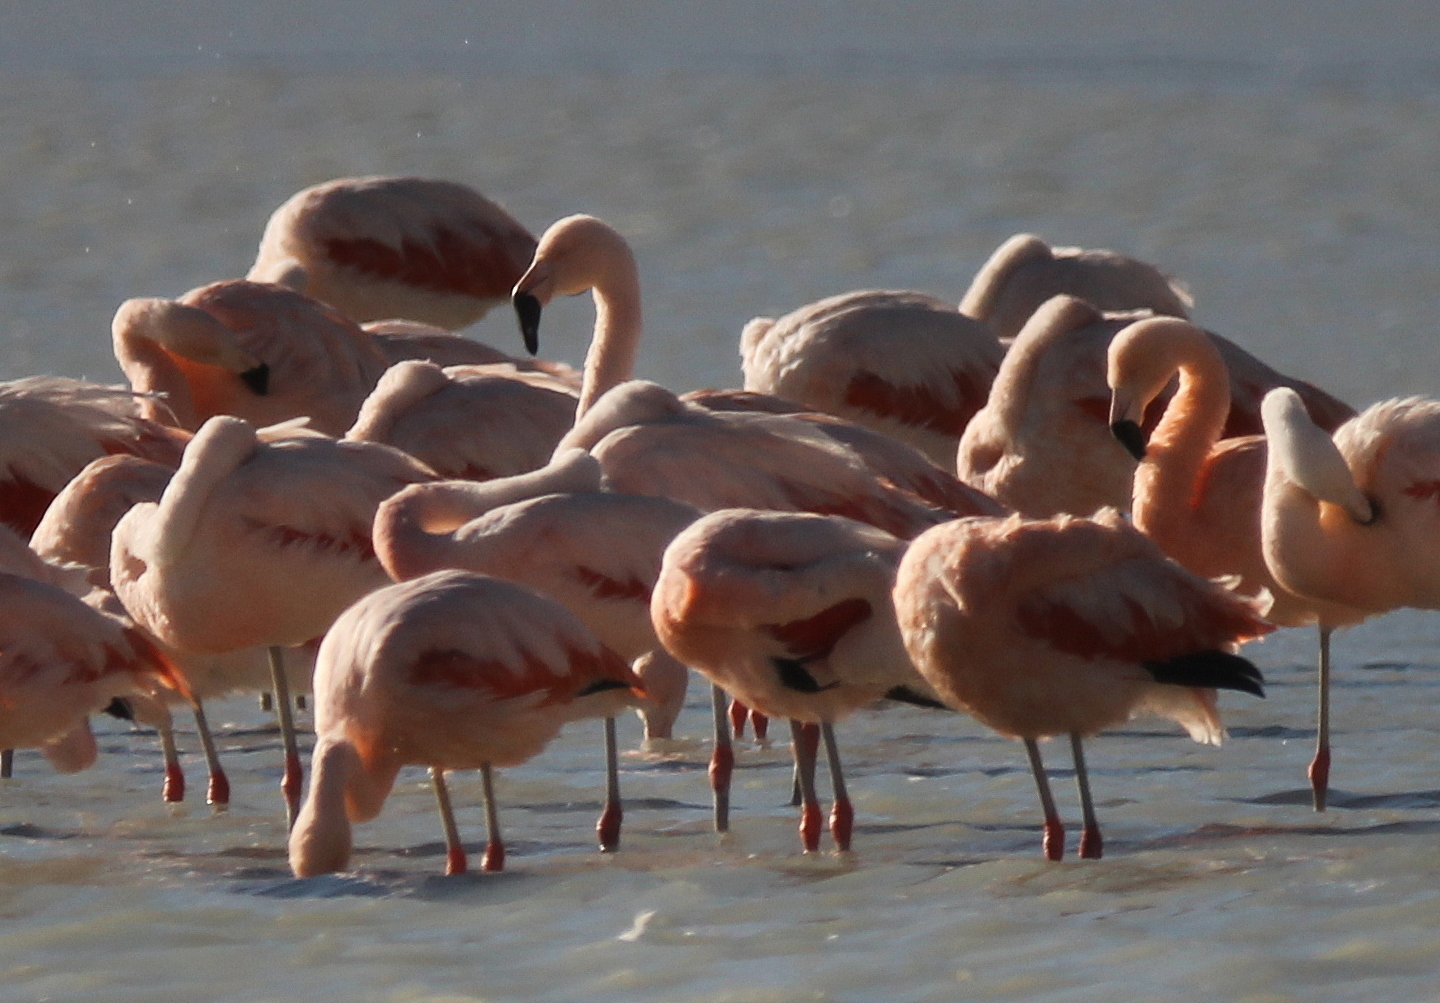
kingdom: Animalia
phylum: Chordata
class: Aves
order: Phoenicopteriformes
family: Phoenicopteridae
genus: Phoenicopterus
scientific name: Phoenicopterus chilensis
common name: Chilean flamingo
